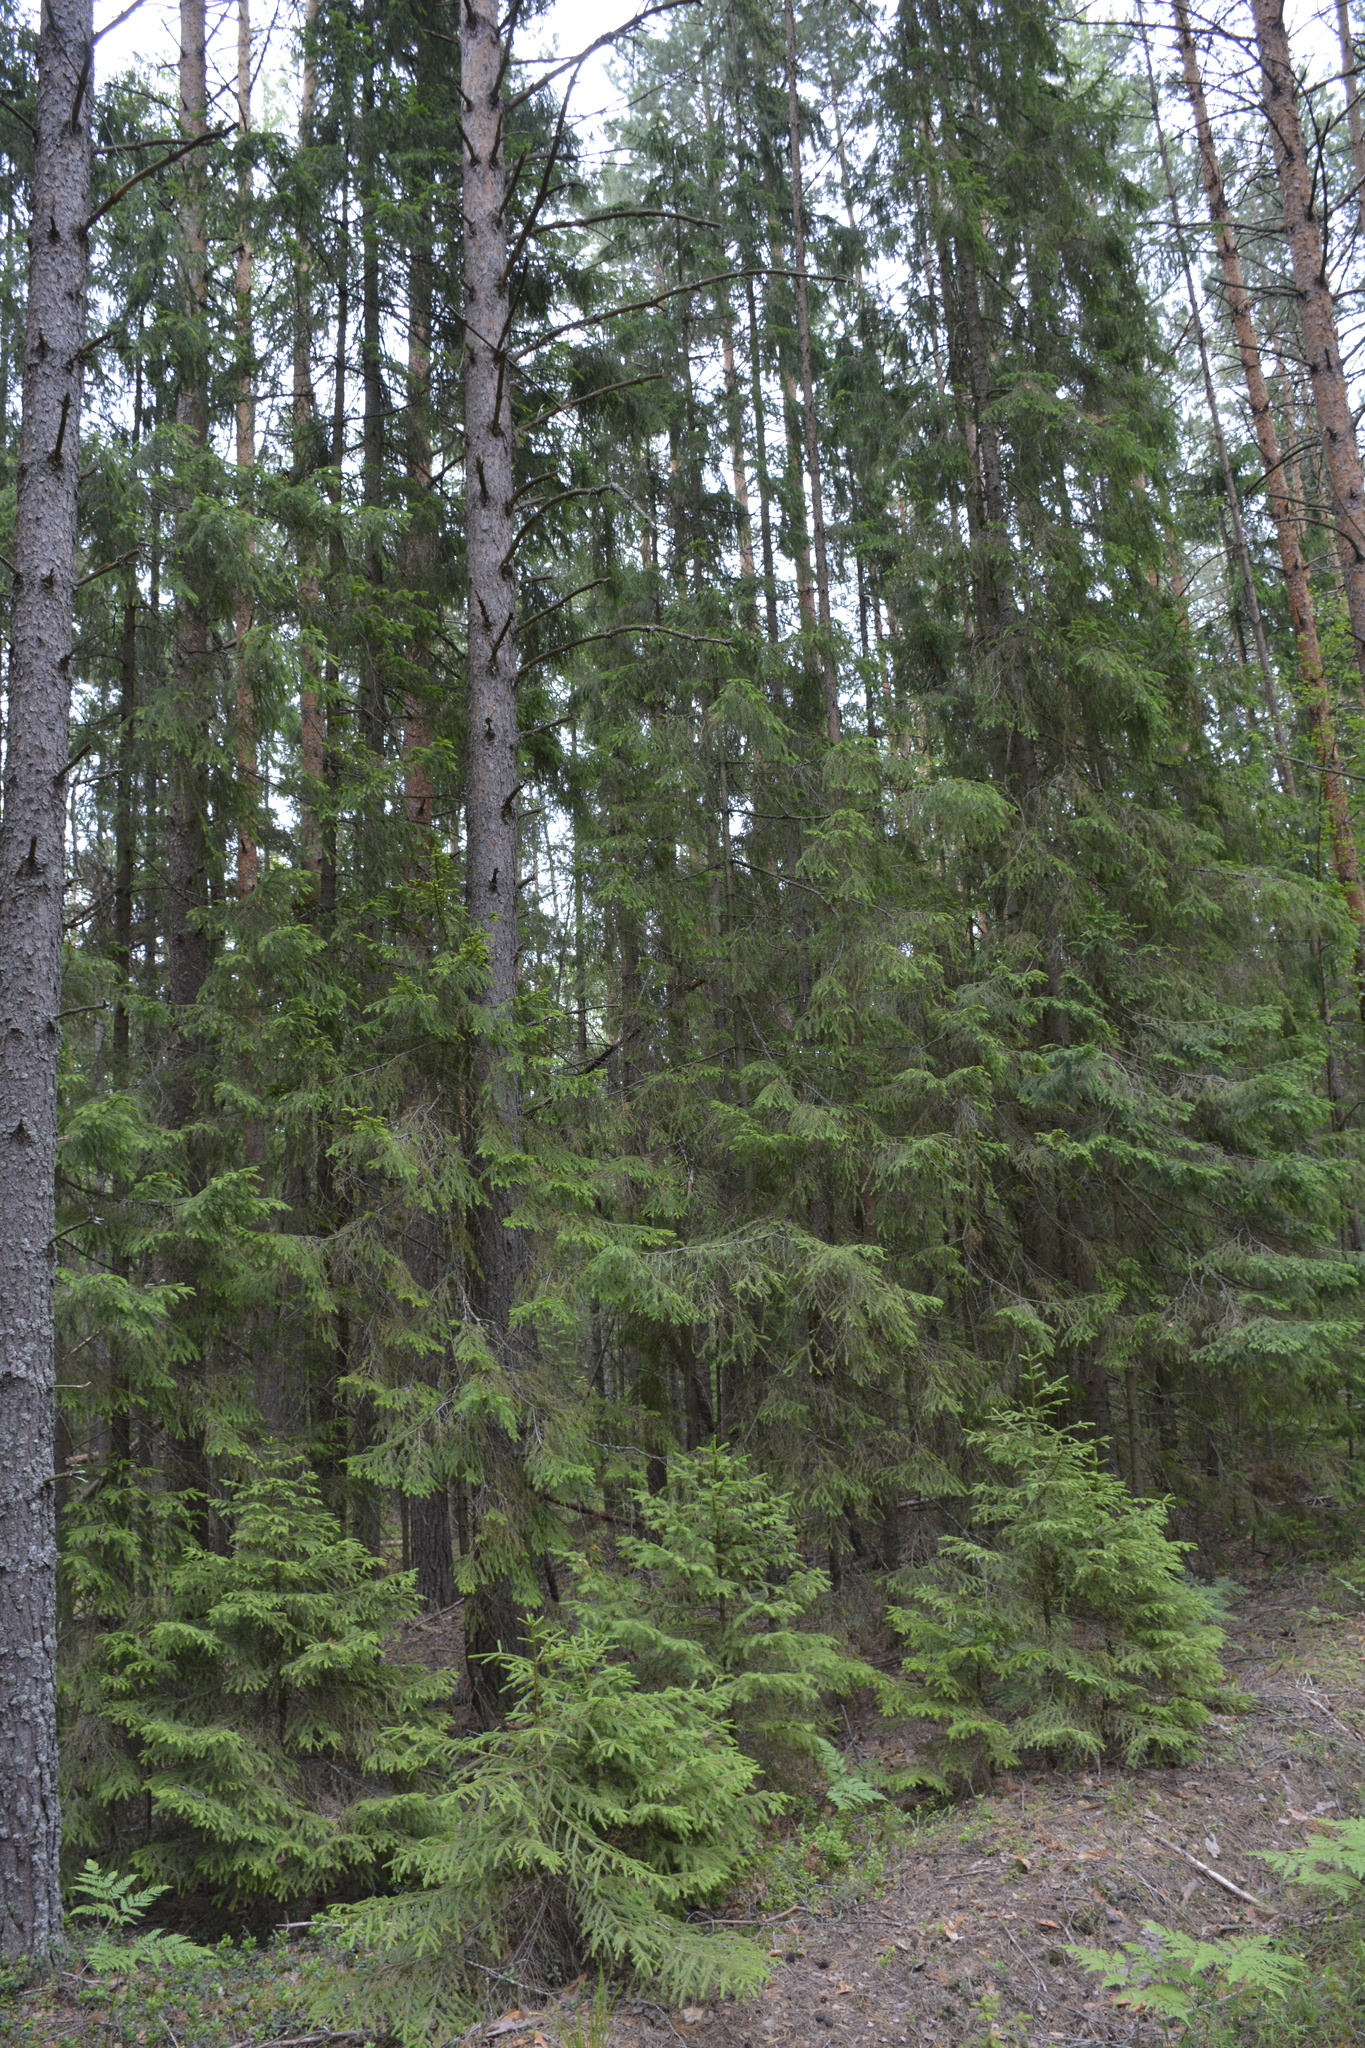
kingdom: Plantae
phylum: Tracheophyta
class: Pinopsida
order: Pinales
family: Pinaceae
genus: Picea
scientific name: Picea abies
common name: Norway spruce
